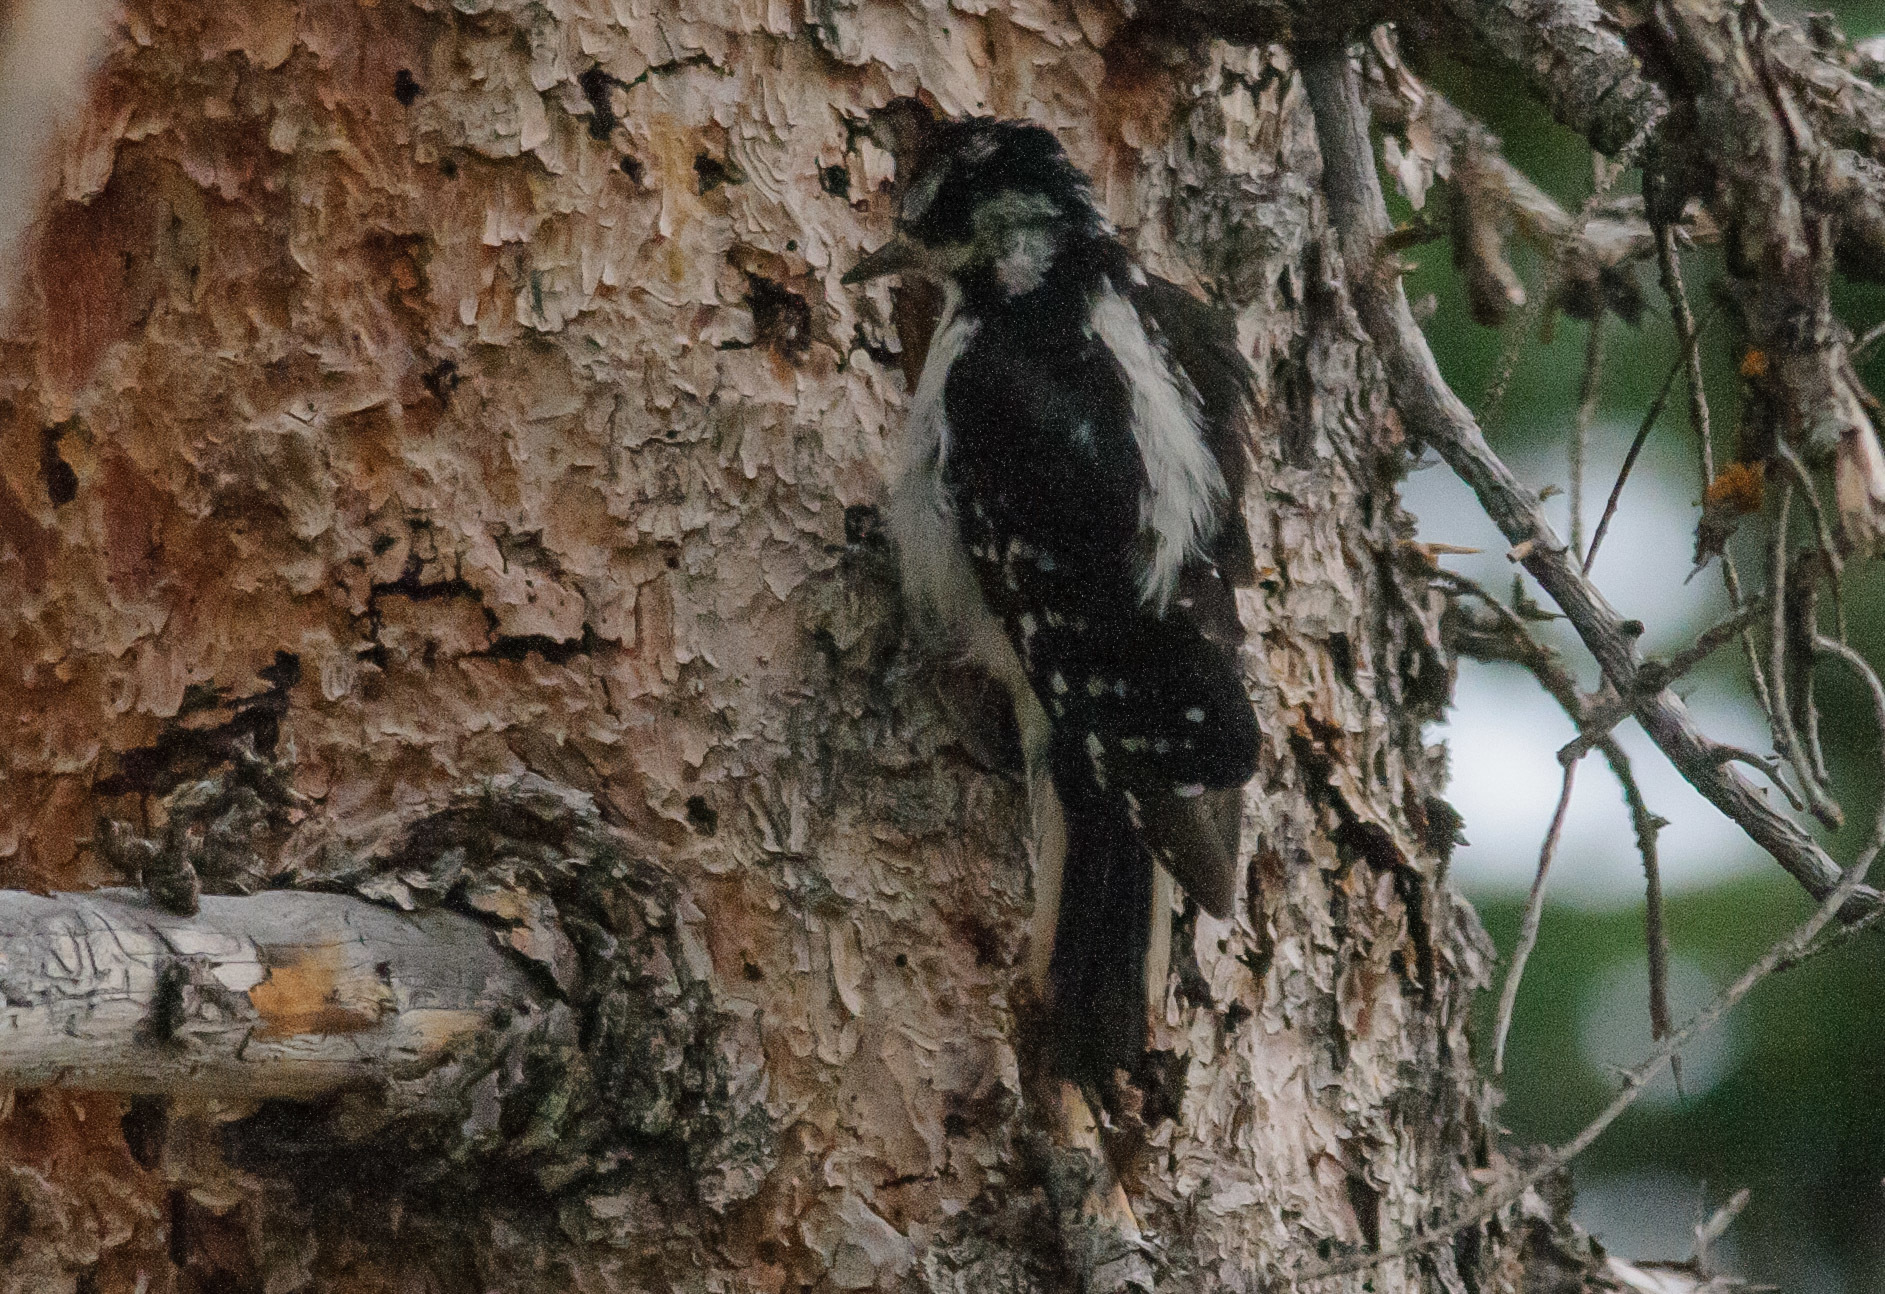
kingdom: Animalia
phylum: Chordata
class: Aves
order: Piciformes
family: Picidae
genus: Leuconotopicus
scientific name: Leuconotopicus villosus
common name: Hairy woodpecker
